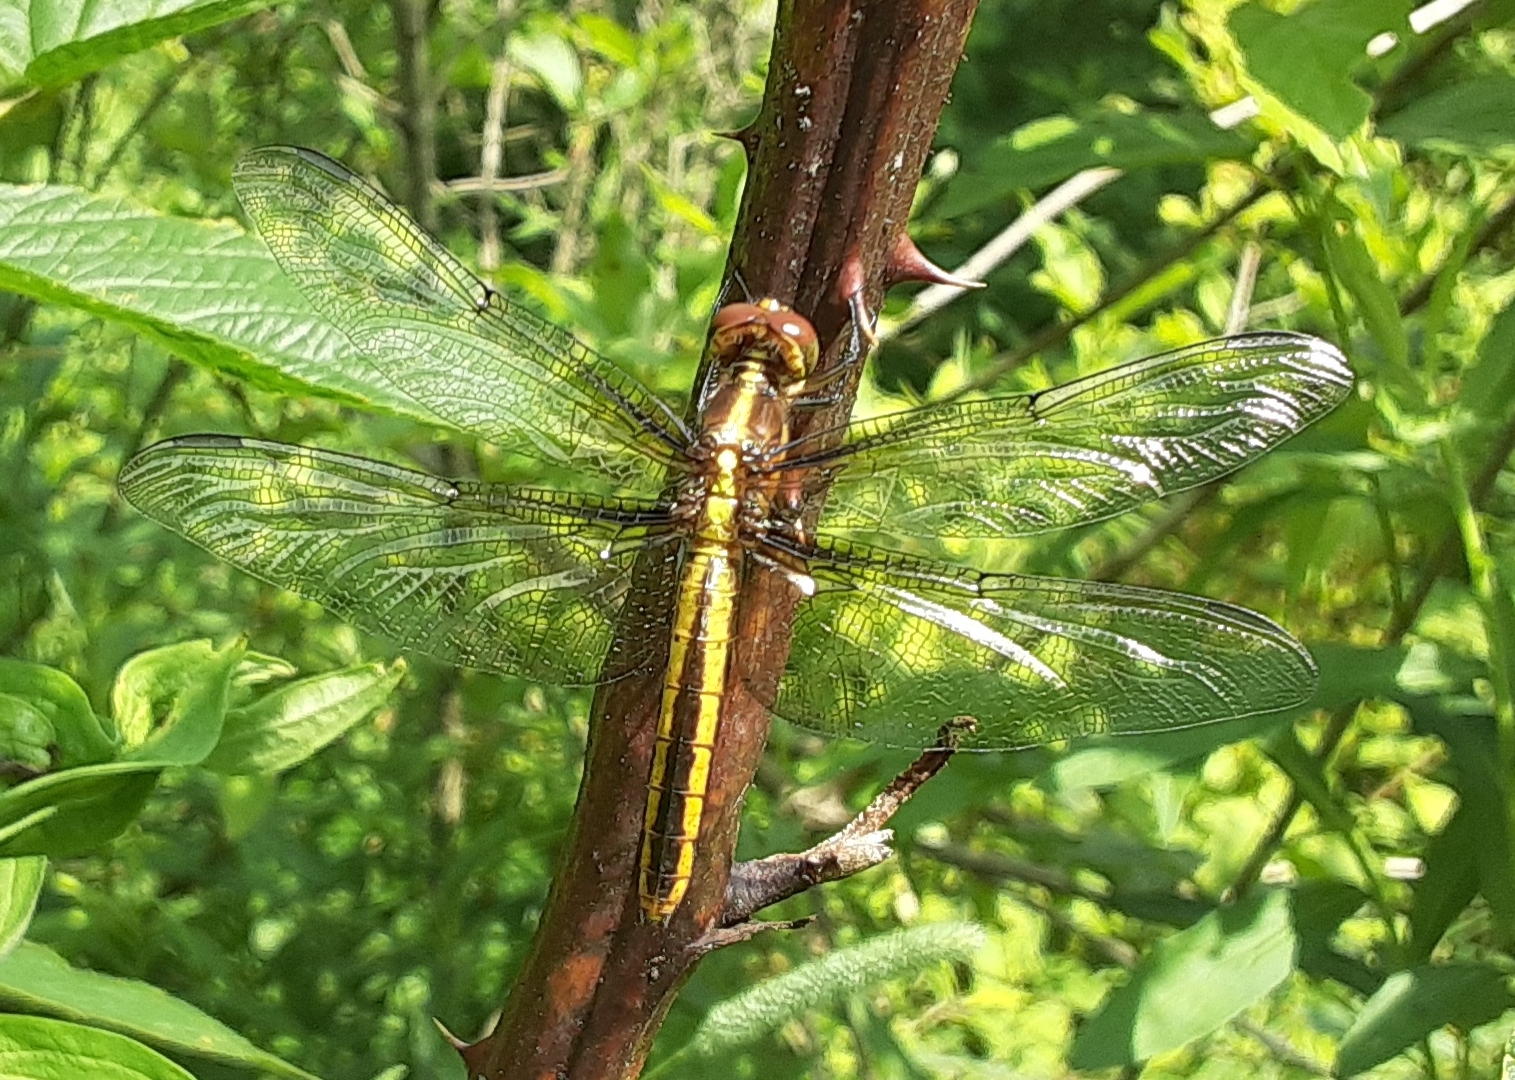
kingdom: Animalia
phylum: Arthropoda
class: Insecta
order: Odonata
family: Libellulidae
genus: Libellula
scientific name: Libellula luctuosa
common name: Widow skimmer
